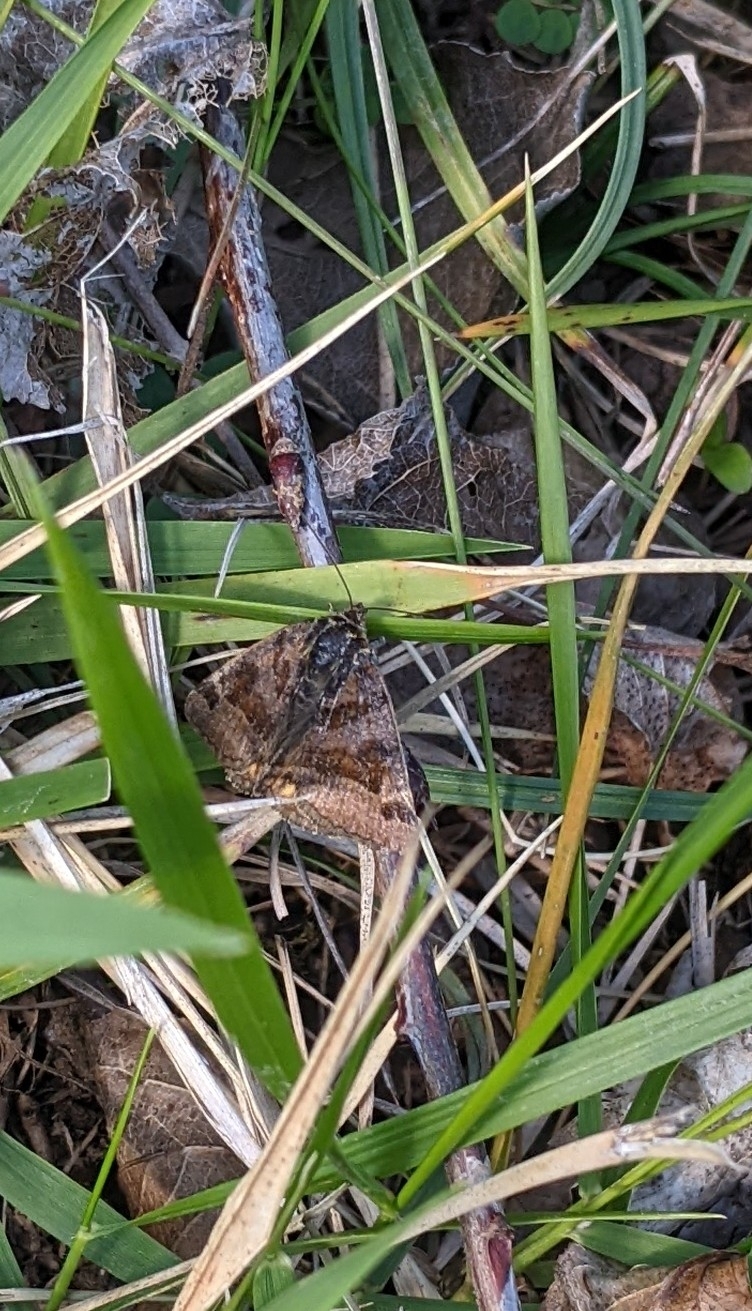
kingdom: Animalia
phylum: Arthropoda
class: Insecta
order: Lepidoptera
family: Erebidae
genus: Euclidia
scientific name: Euclidia glyphica
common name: Burnet companion
